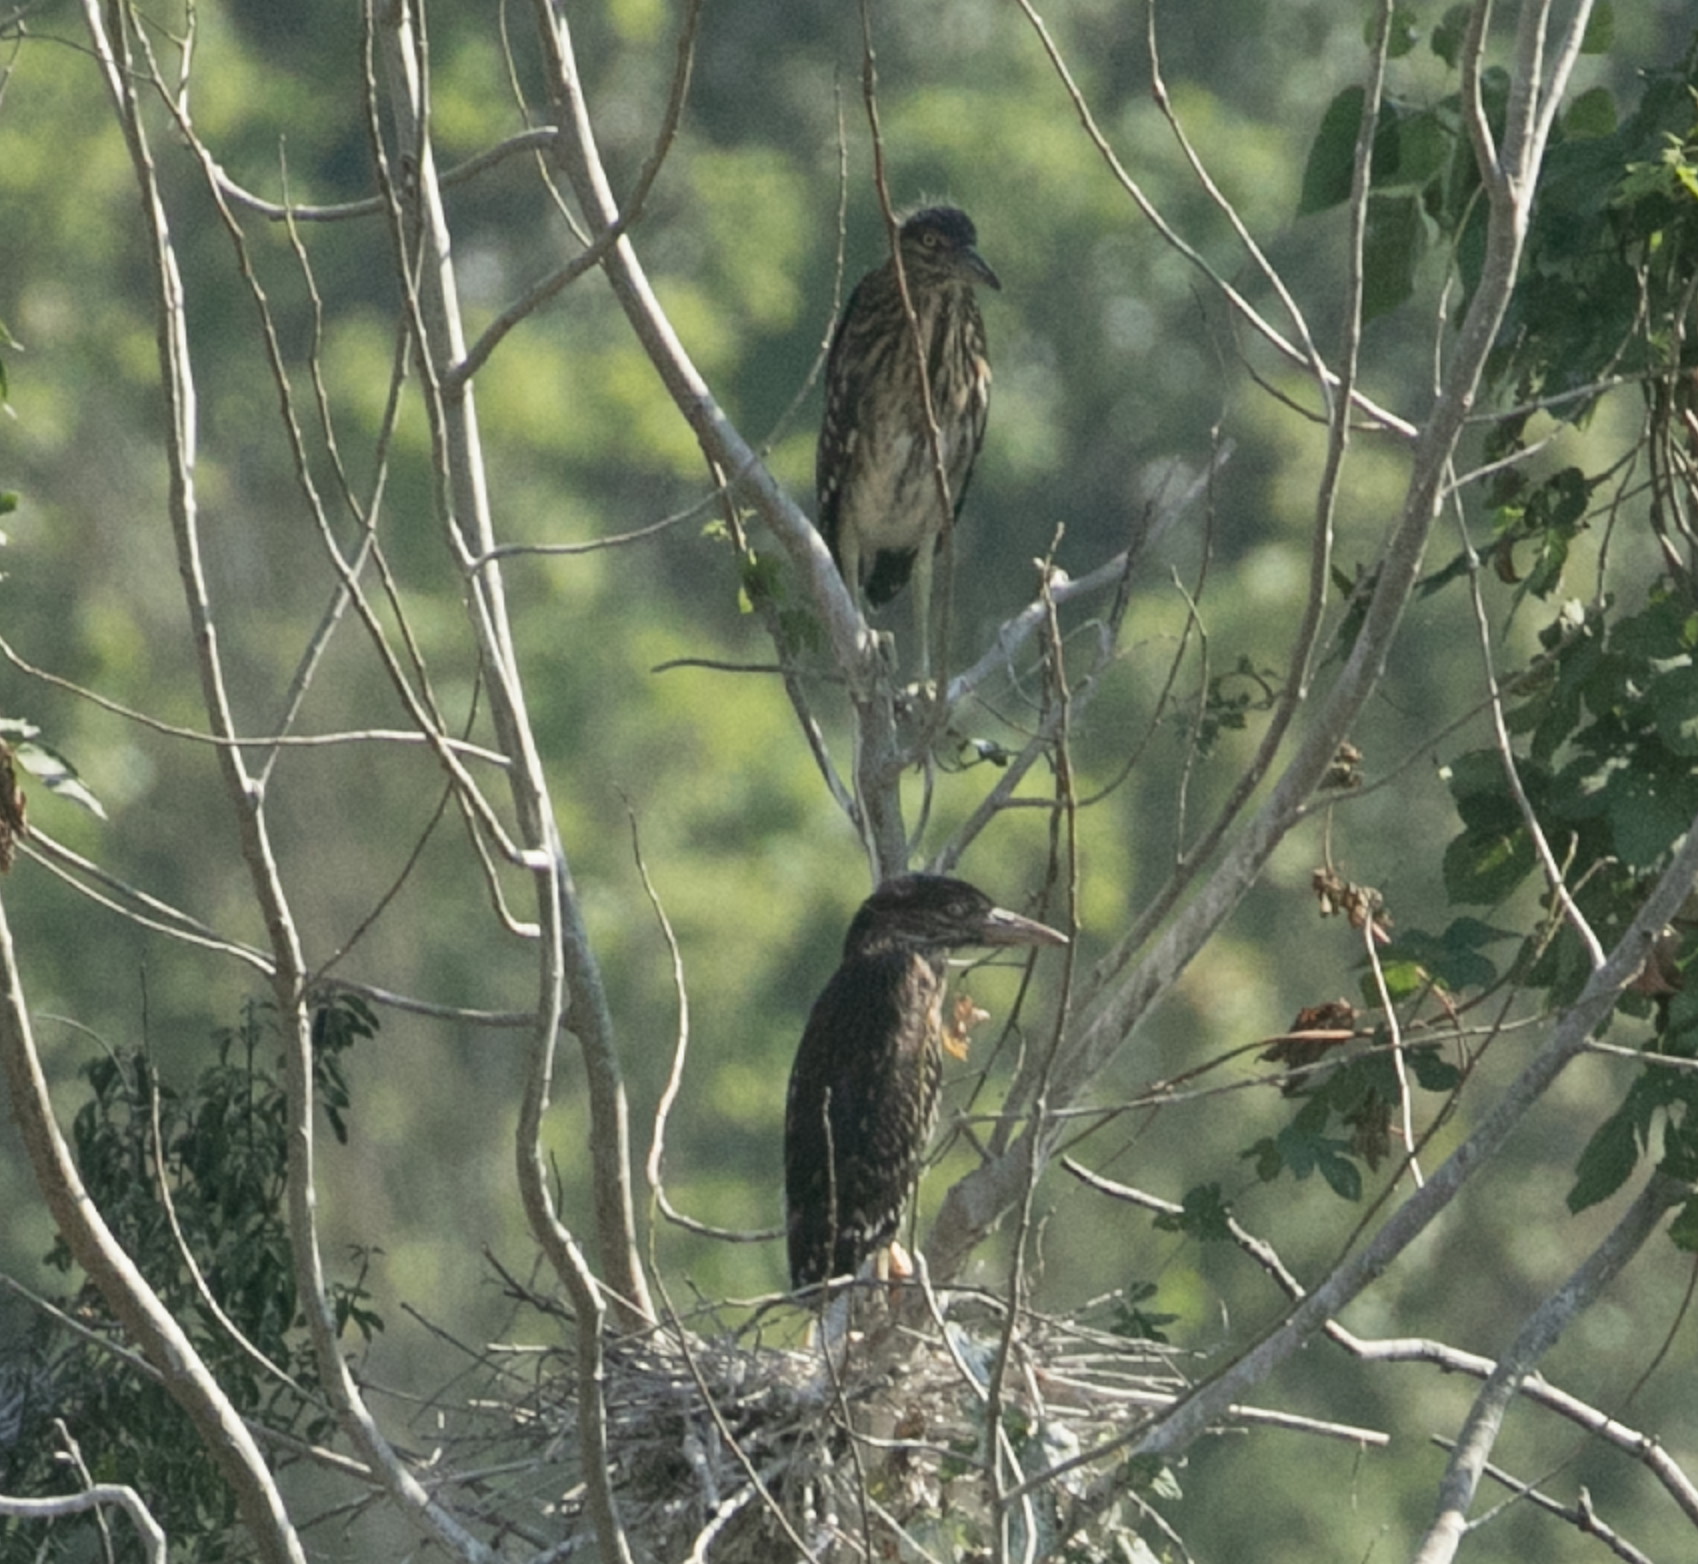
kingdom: Animalia
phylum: Chordata
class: Aves
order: Pelecaniformes
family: Ardeidae
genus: Nycticorax
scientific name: Nycticorax nycticorax
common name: Black-crowned night heron
